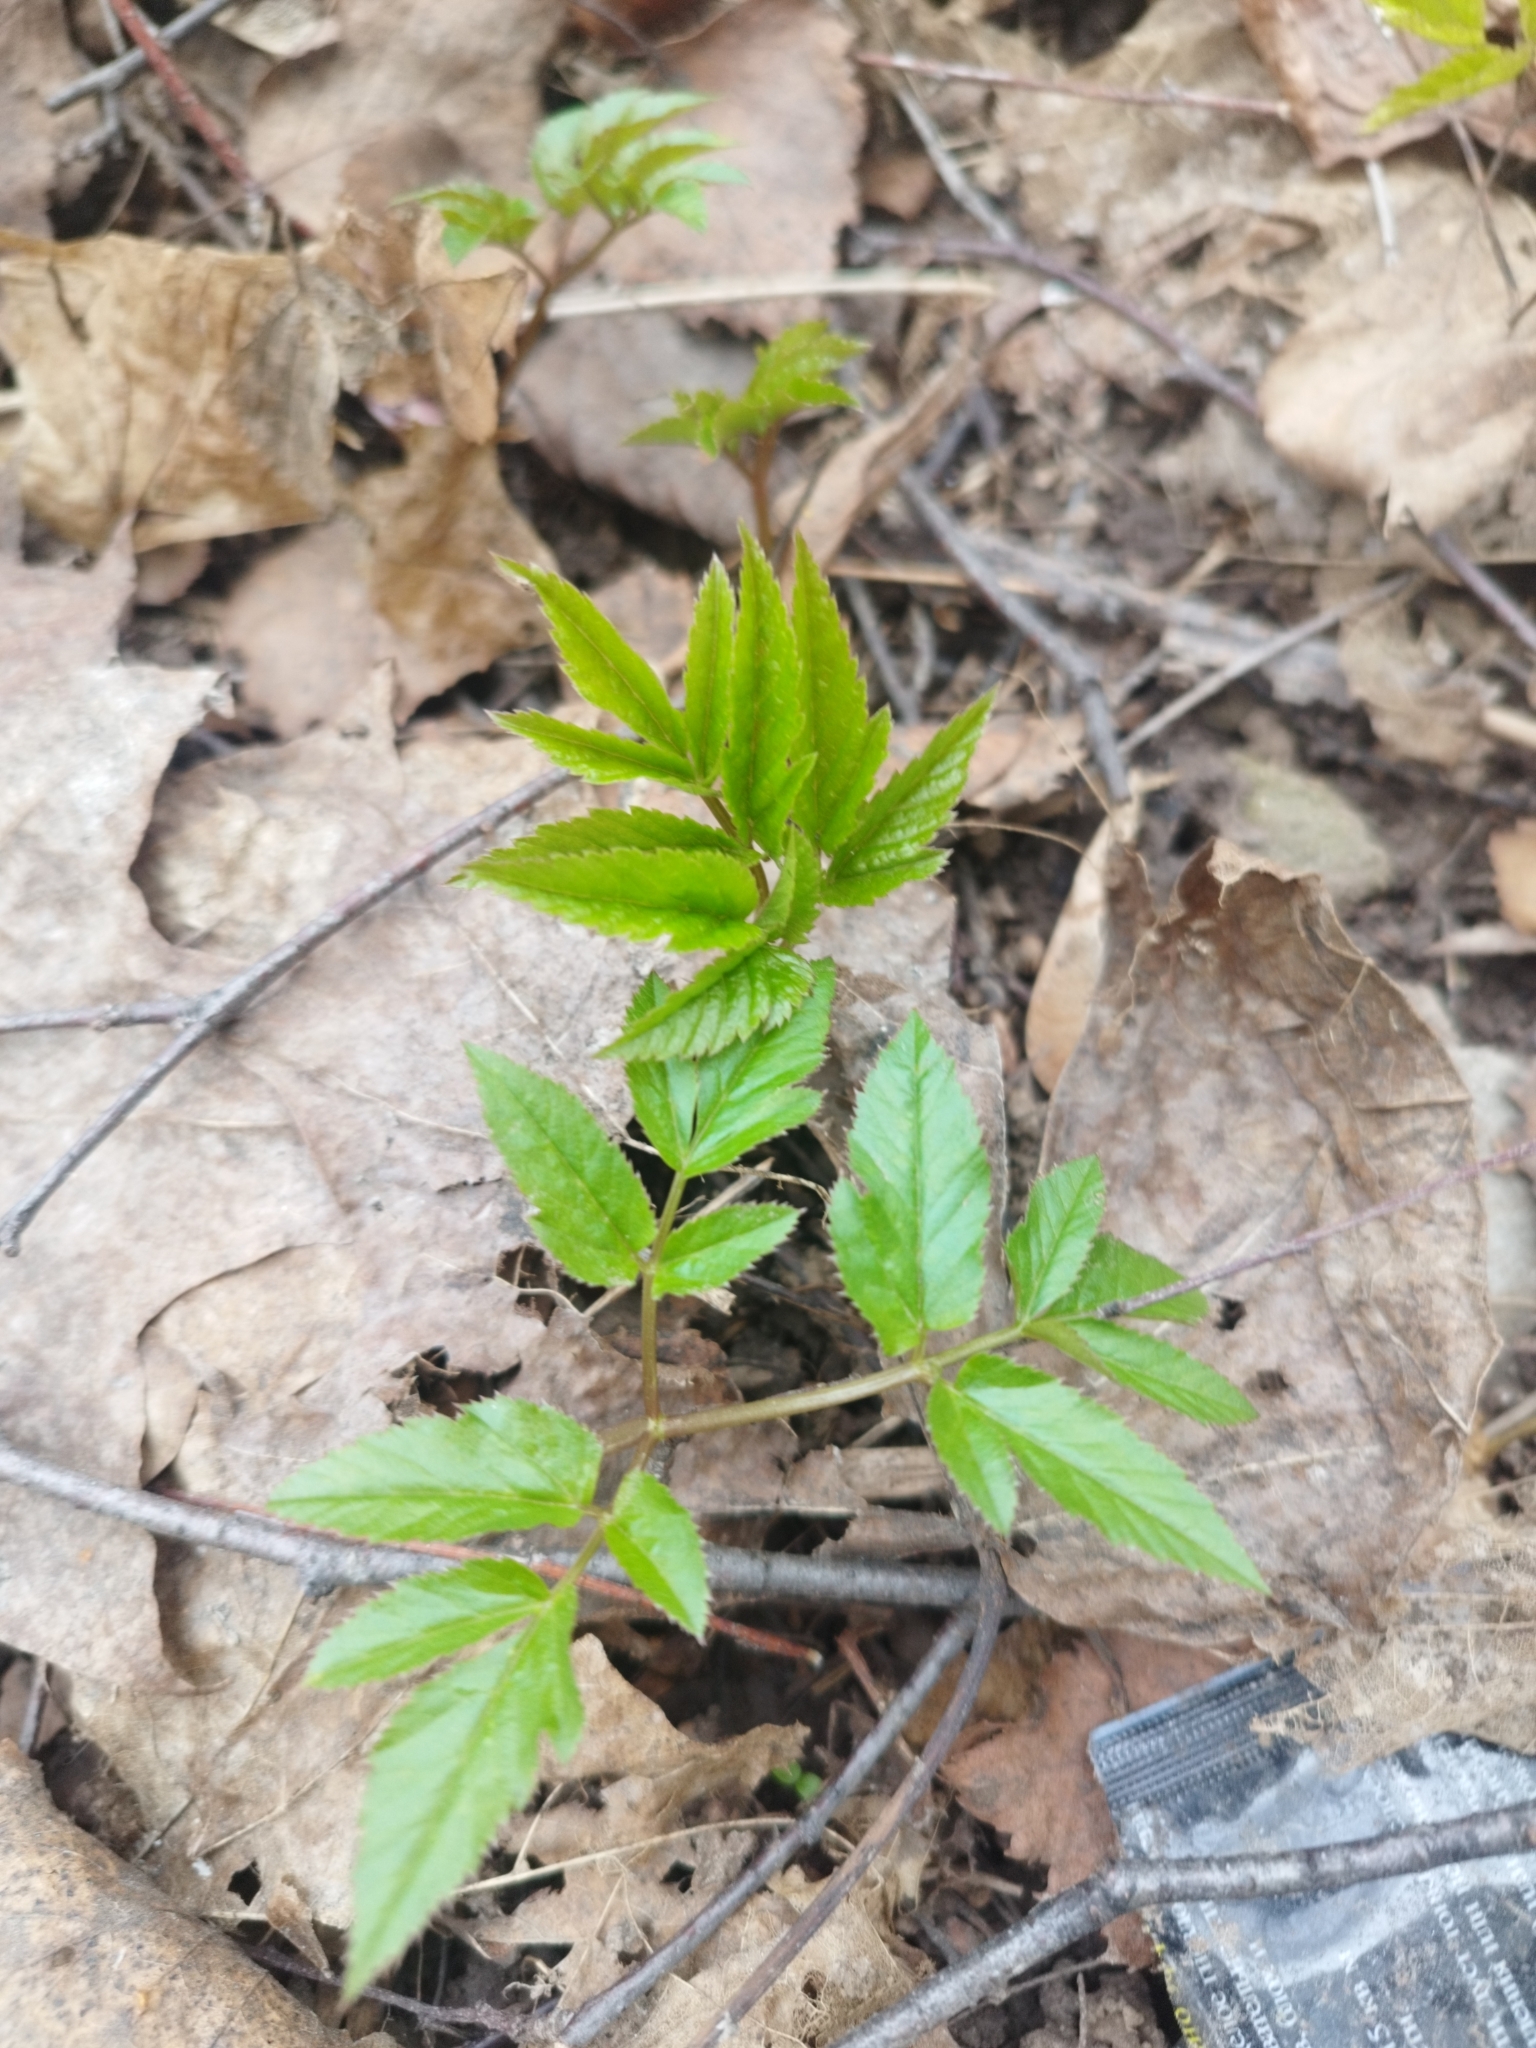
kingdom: Plantae
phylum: Tracheophyta
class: Magnoliopsida
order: Apiales
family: Apiaceae
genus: Aegopodium
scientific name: Aegopodium podagraria
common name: Ground-elder
